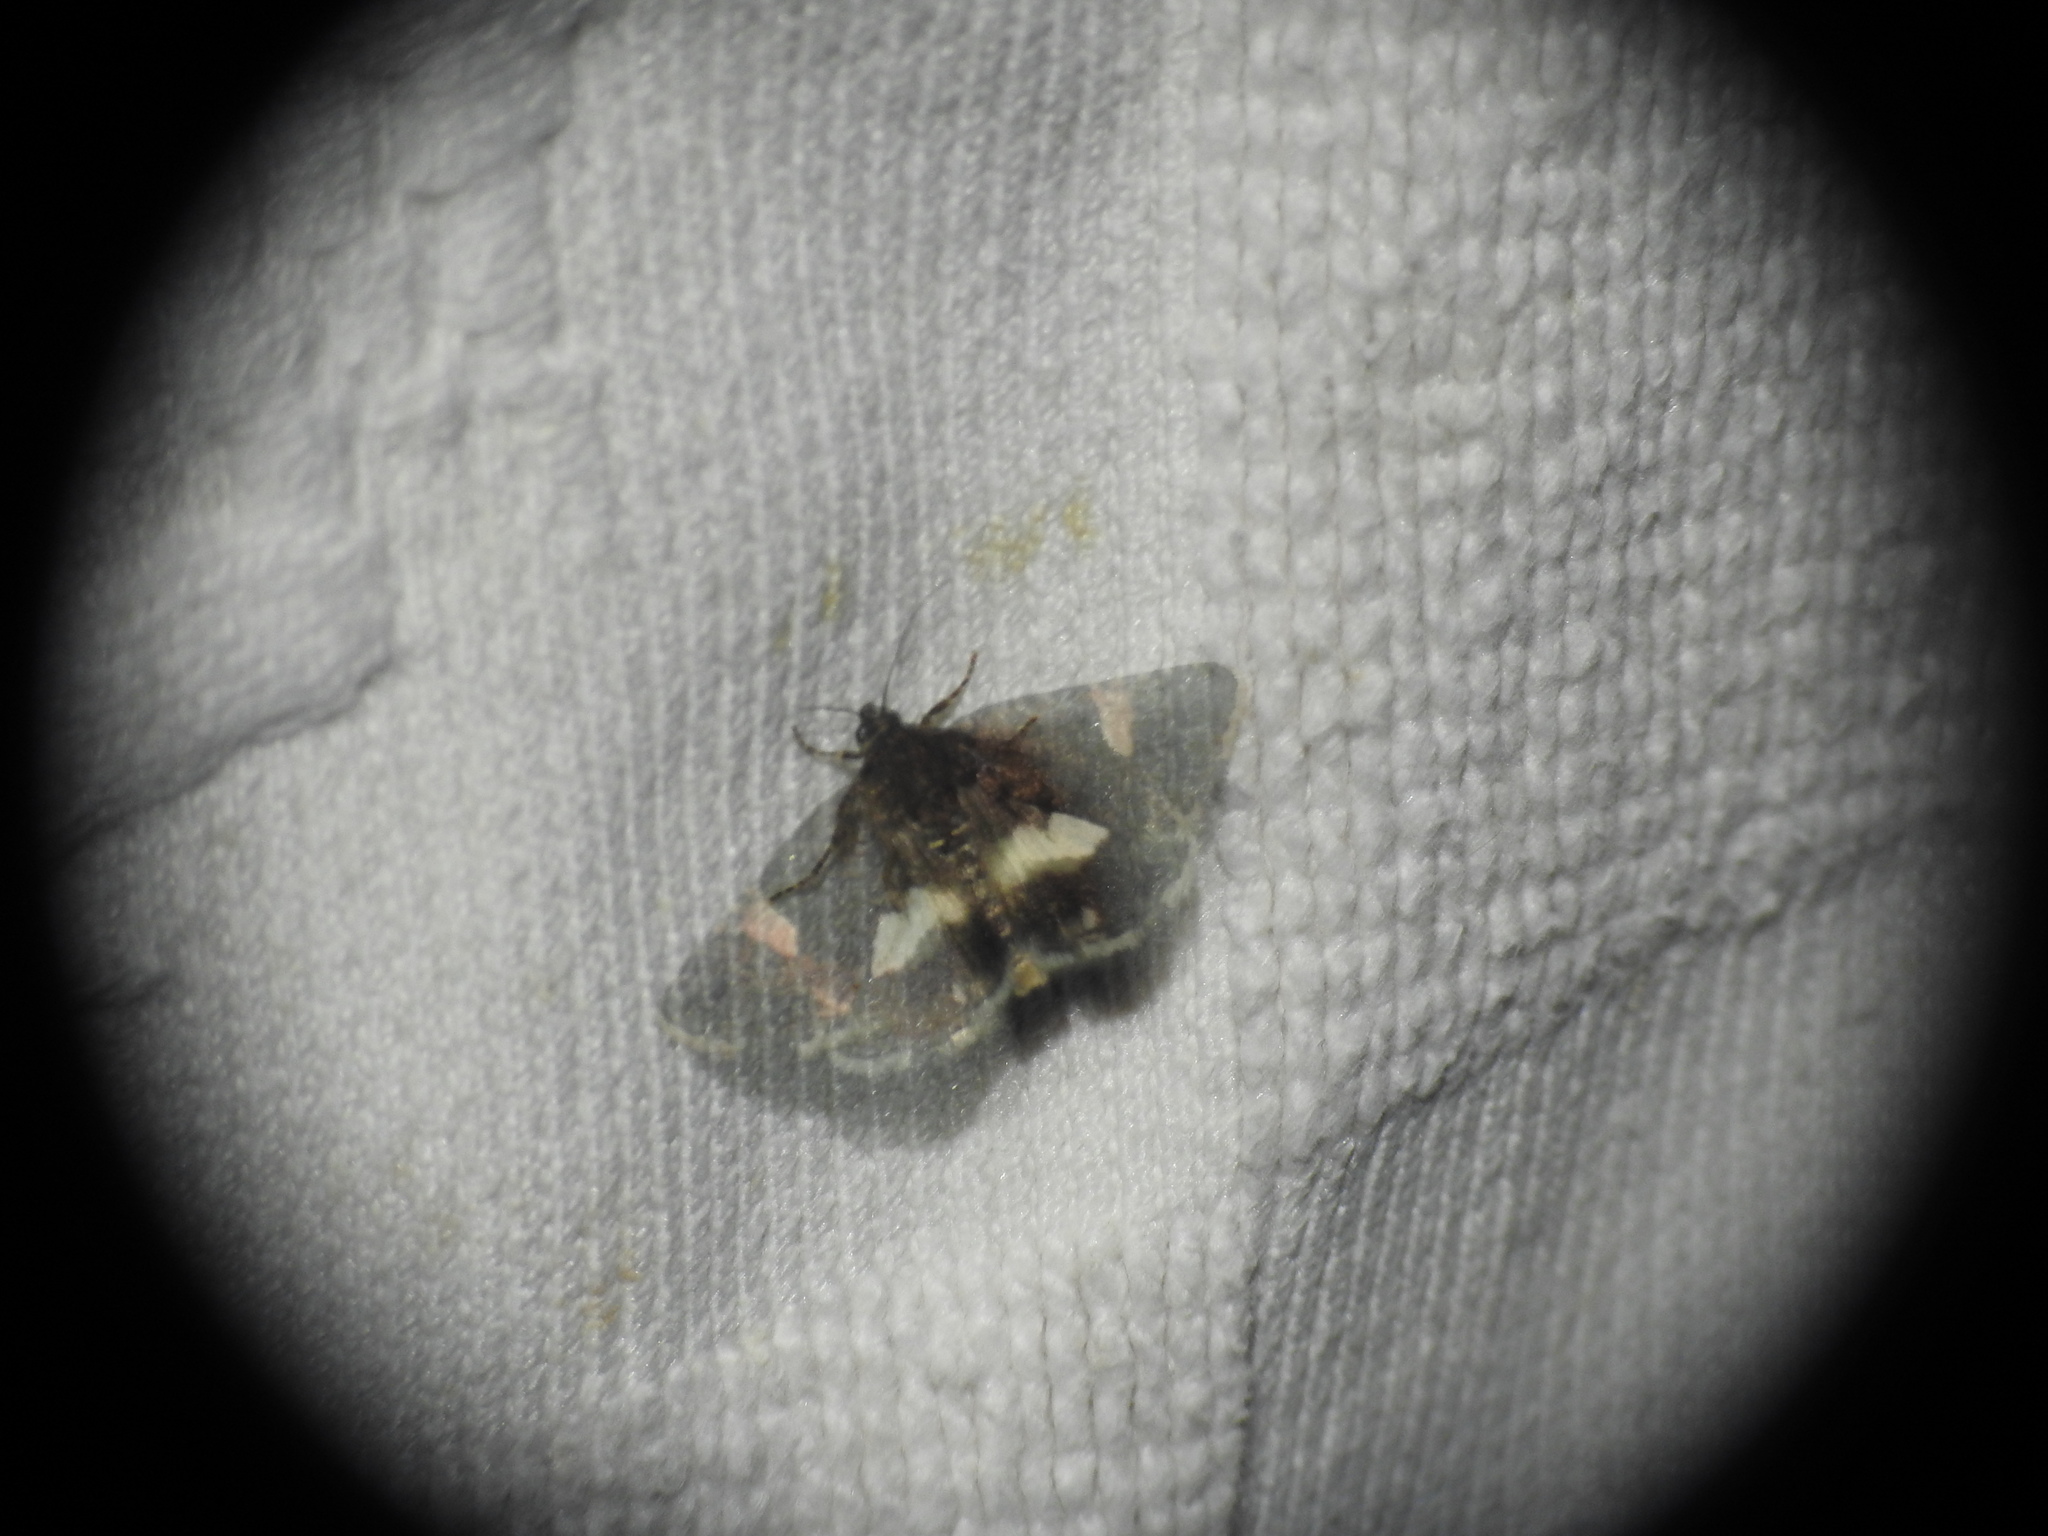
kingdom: Animalia
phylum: Arthropoda
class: Insecta
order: Lepidoptera
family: Erebidae
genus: Tyta
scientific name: Tyta luctuosa
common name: Four-spotted
